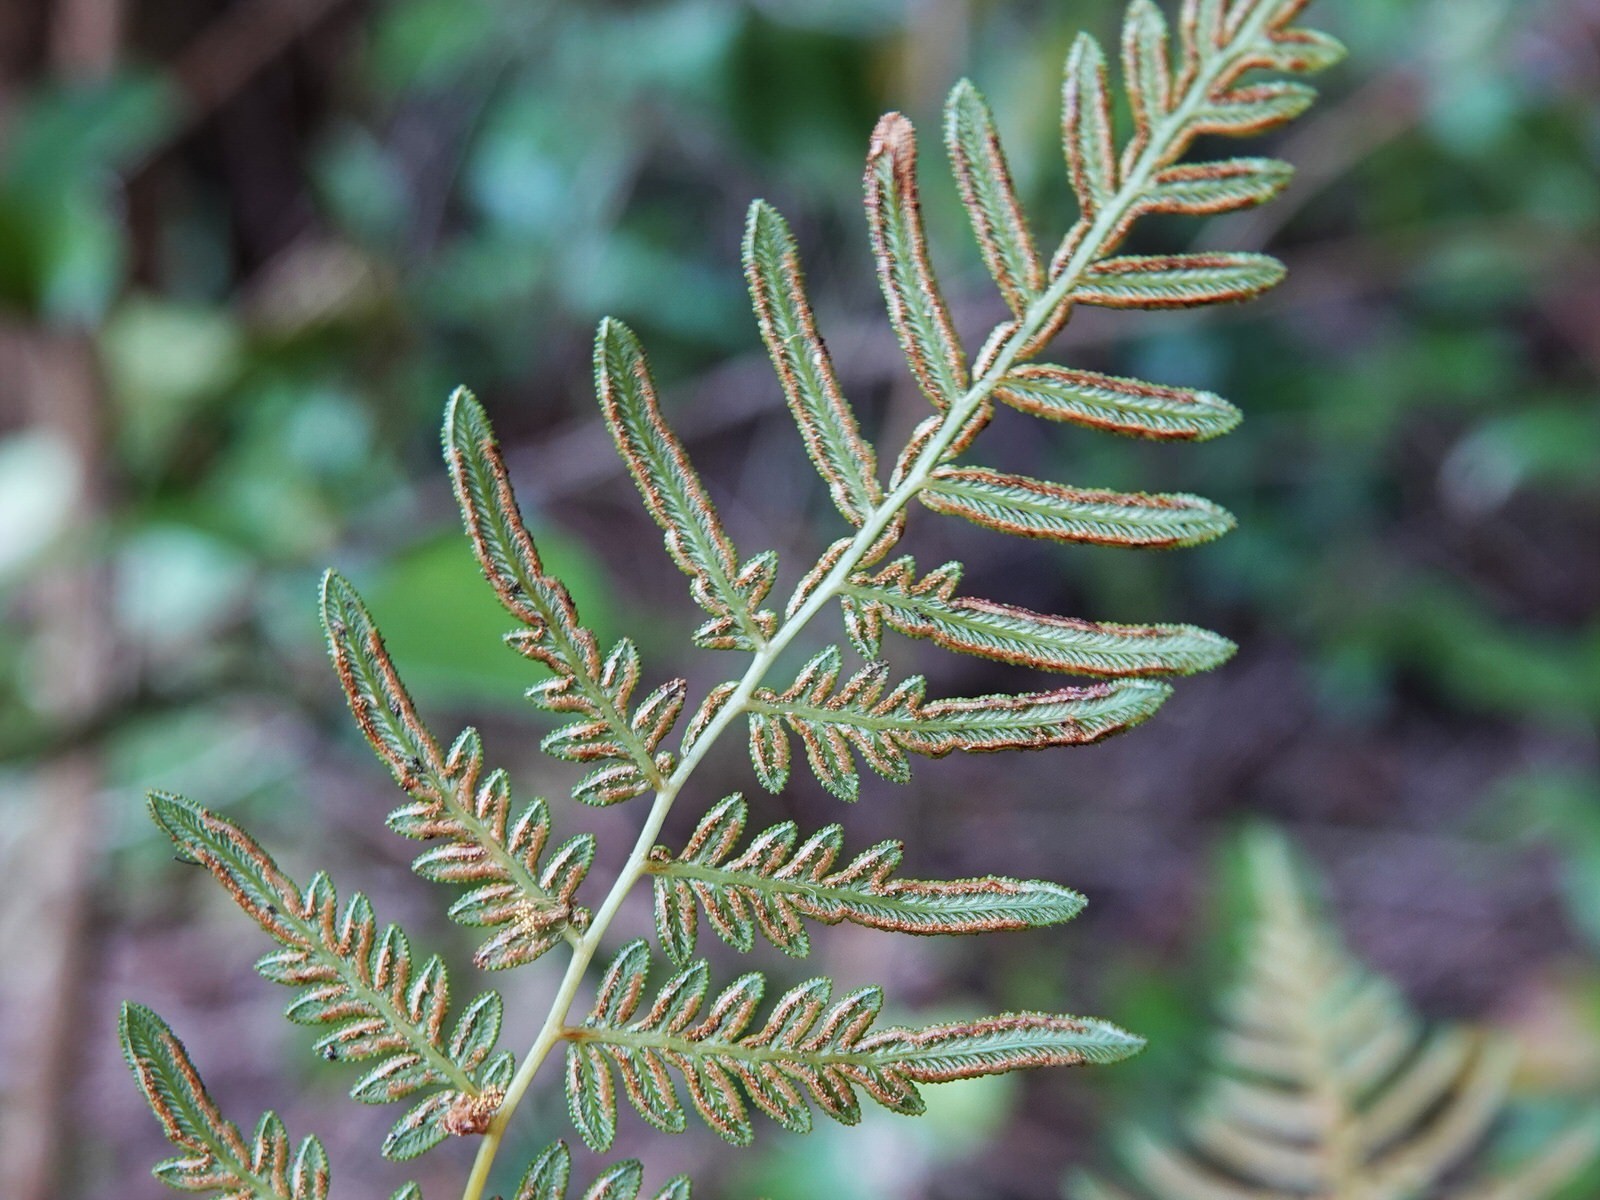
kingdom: Plantae
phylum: Tracheophyta
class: Polypodiopsida
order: Polypodiales
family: Dennstaedtiaceae
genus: Pteridium
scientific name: Pteridium esculentum
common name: Bracken fern
